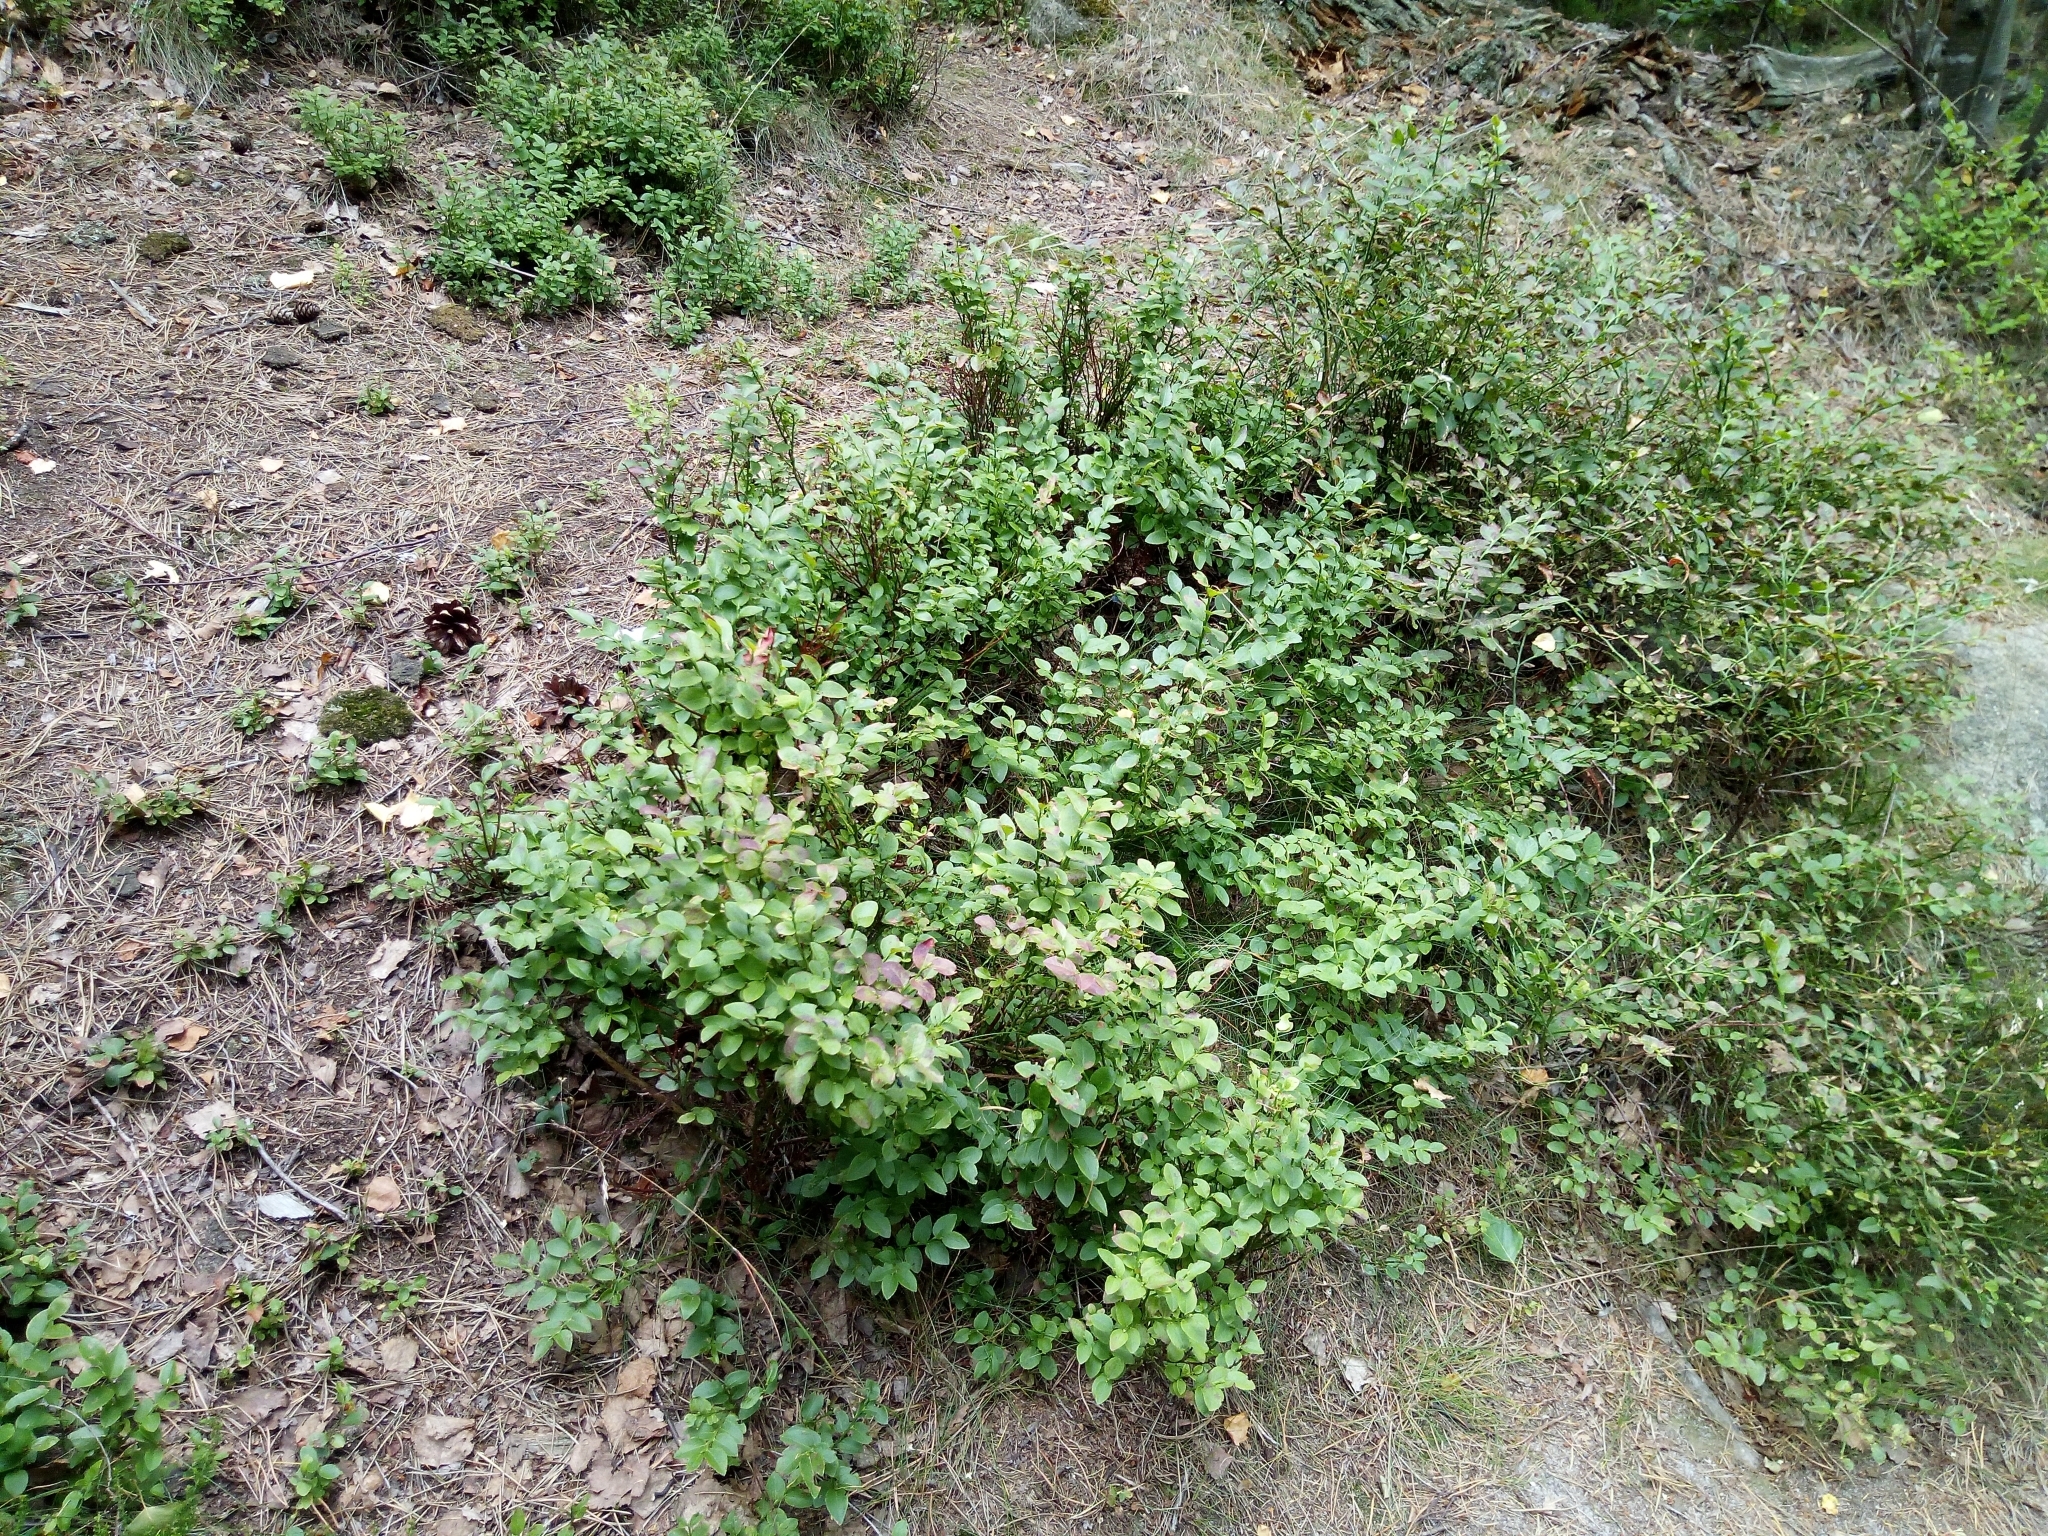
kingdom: Plantae
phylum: Tracheophyta
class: Magnoliopsida
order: Ericales
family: Ericaceae
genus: Vaccinium
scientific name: Vaccinium myrtillus
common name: Bilberry
